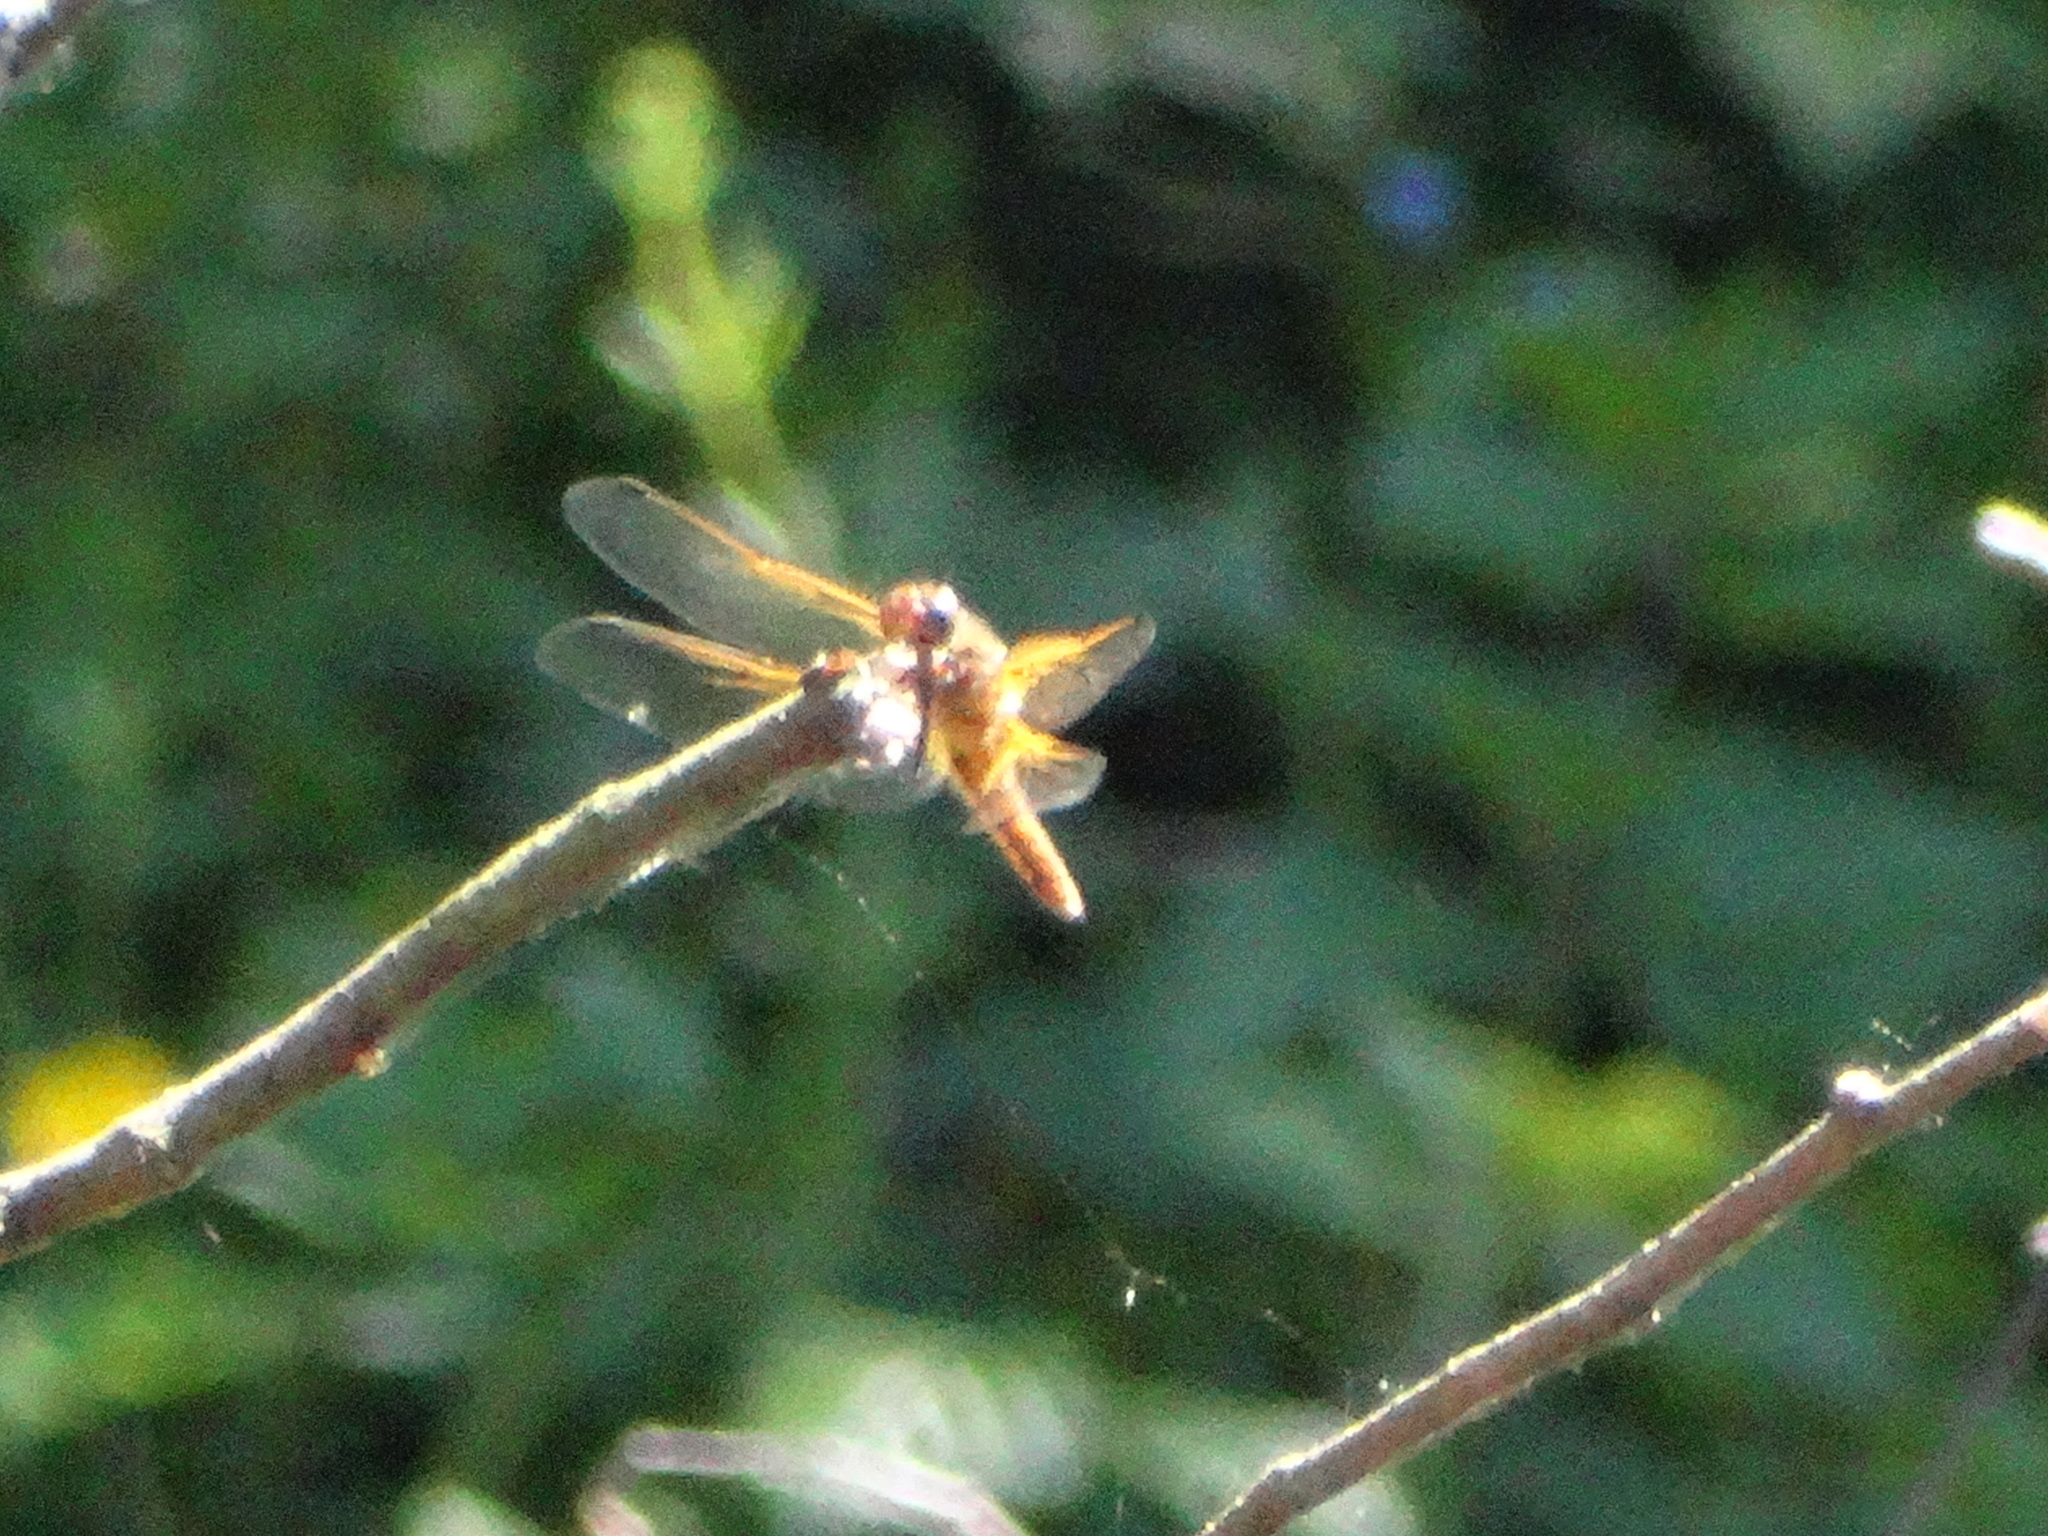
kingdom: Animalia
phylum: Arthropoda
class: Insecta
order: Odonata
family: Libellulidae
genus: Libellula
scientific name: Libellula fulva
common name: Blue chaser
